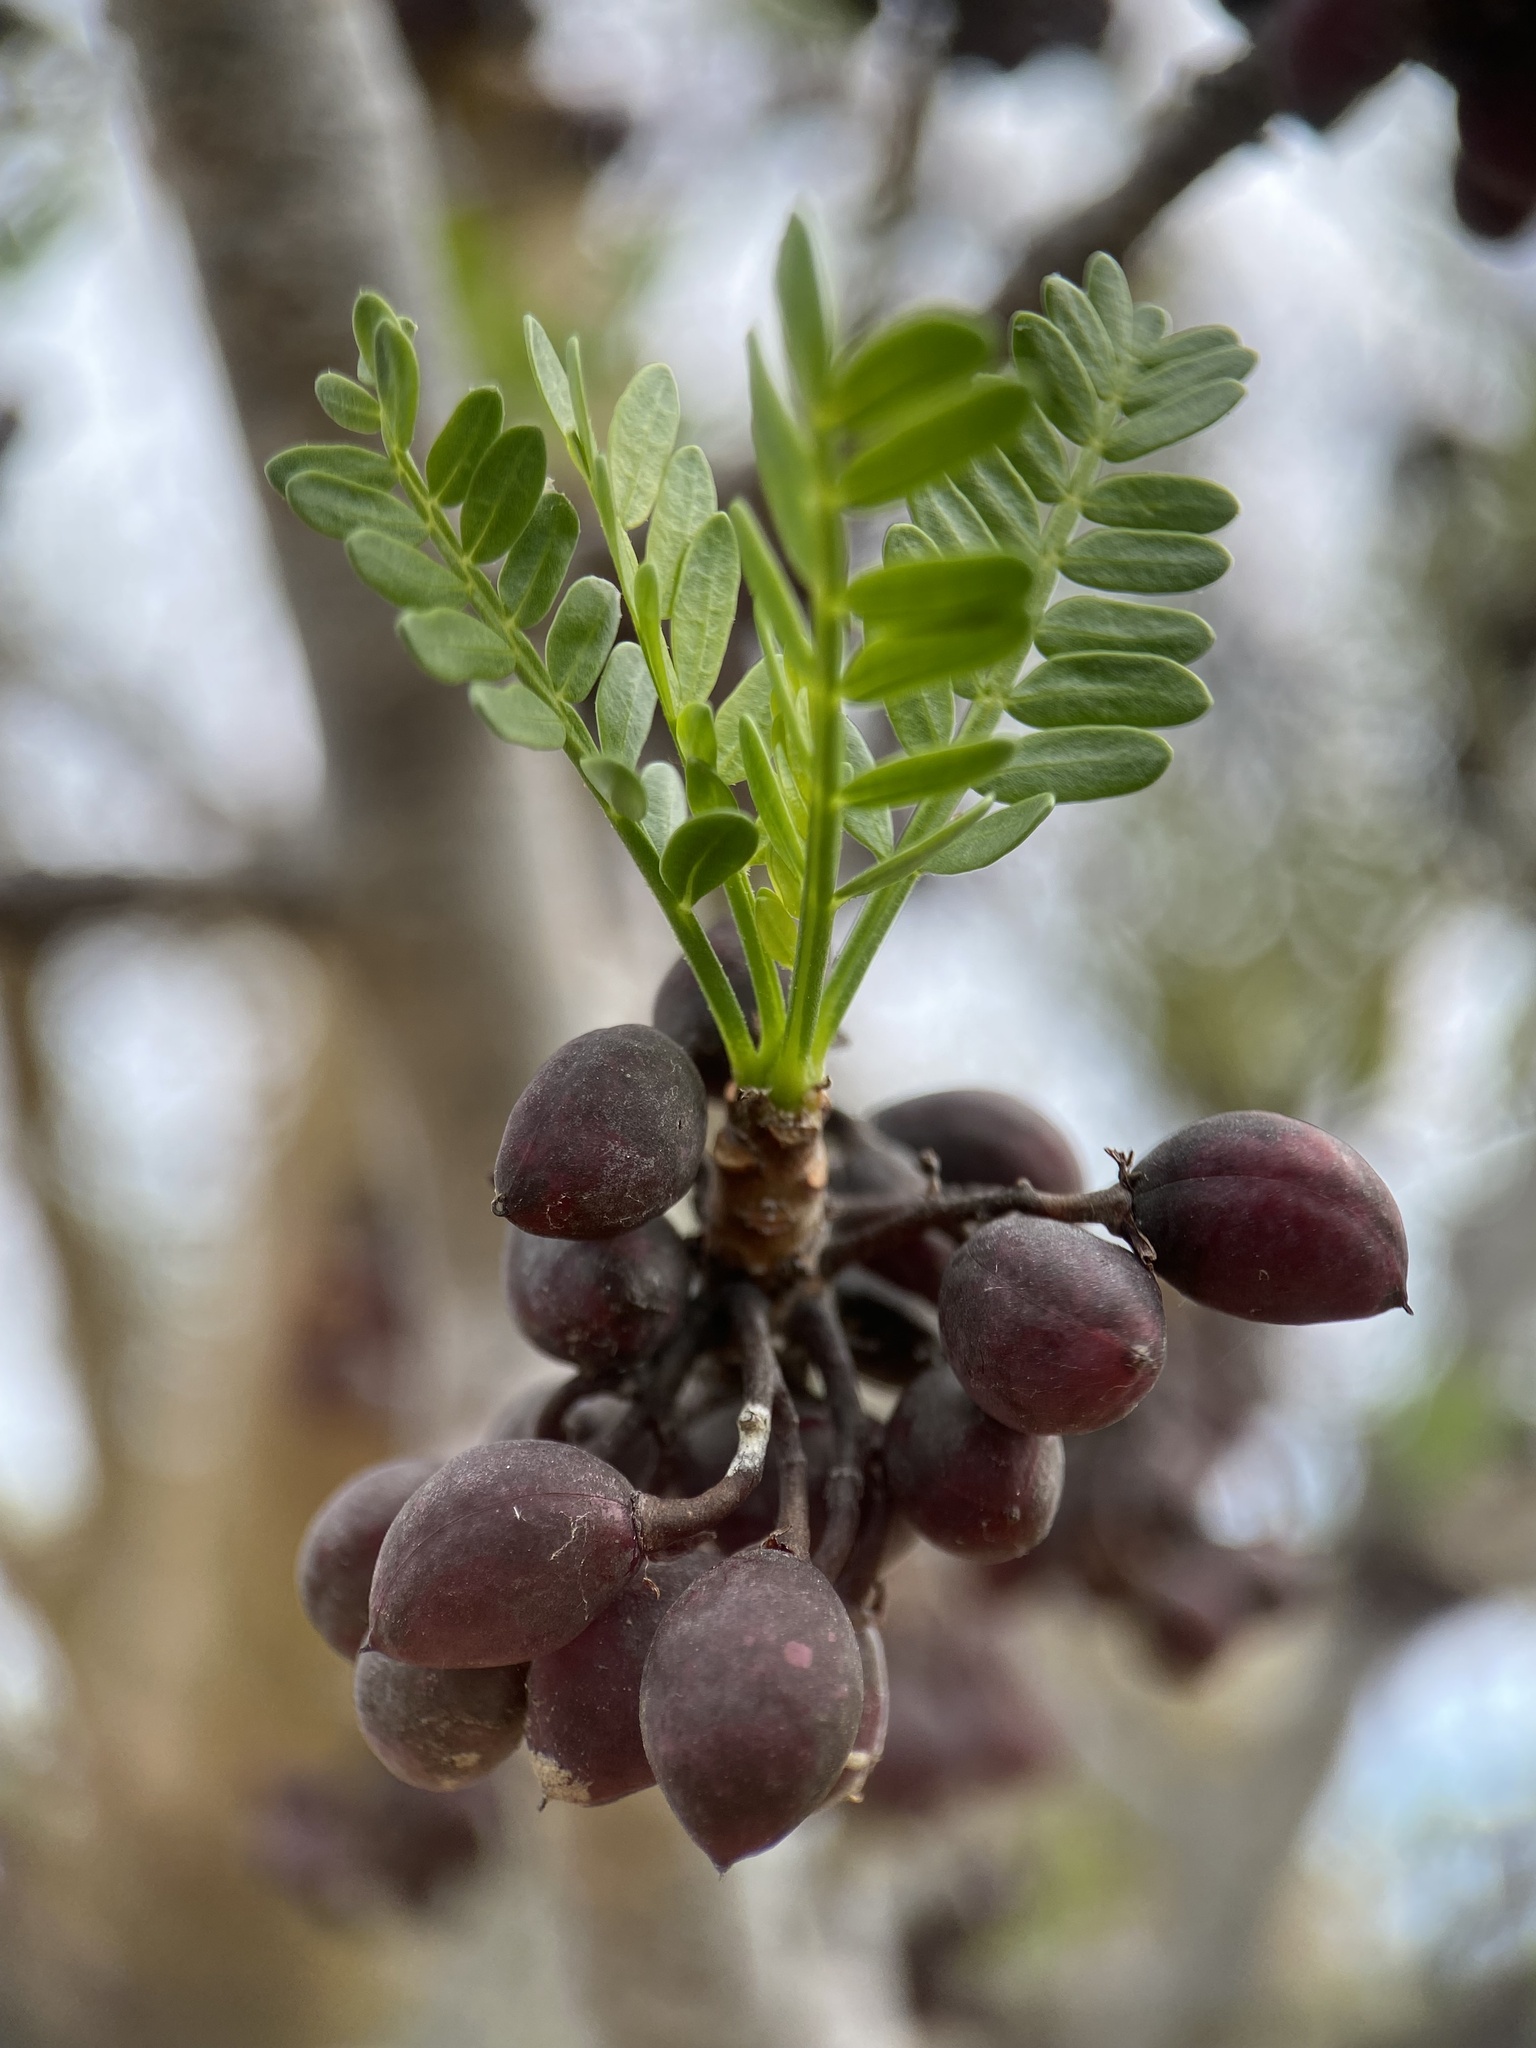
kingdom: Plantae
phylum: Tracheophyta
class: Magnoliopsida
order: Sapindales
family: Burseraceae
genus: Bursera
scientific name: Bursera microphylla
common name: Elephant tree
